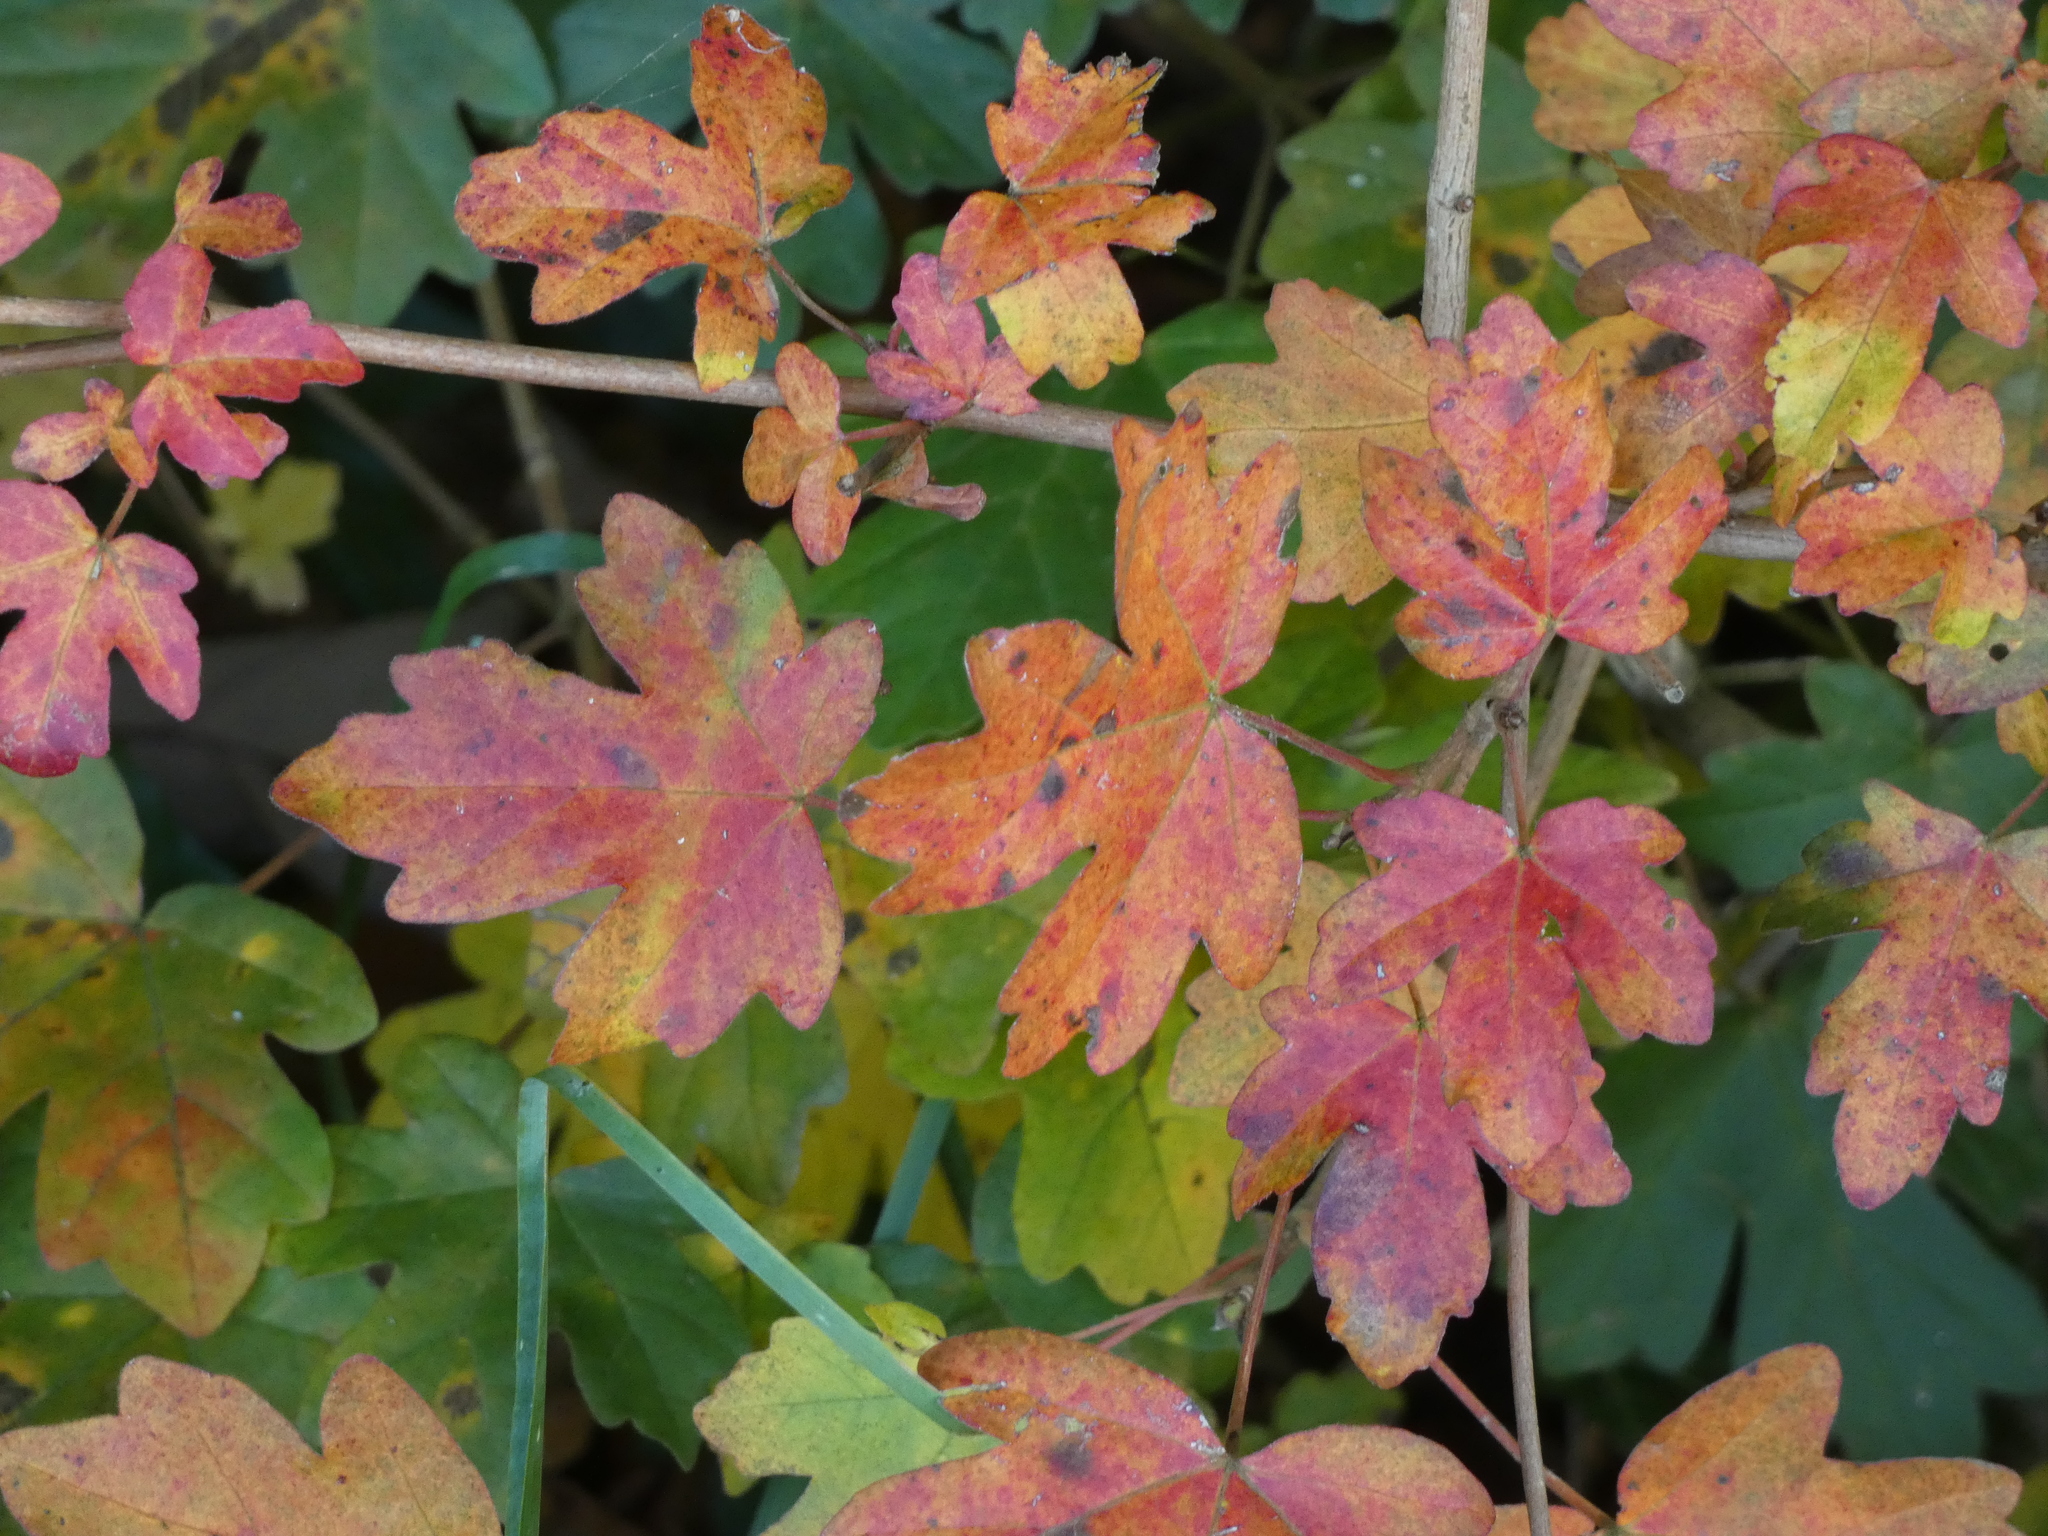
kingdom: Plantae
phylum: Tracheophyta
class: Magnoliopsida
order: Sapindales
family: Sapindaceae
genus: Acer
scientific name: Acer campestre
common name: Field maple
